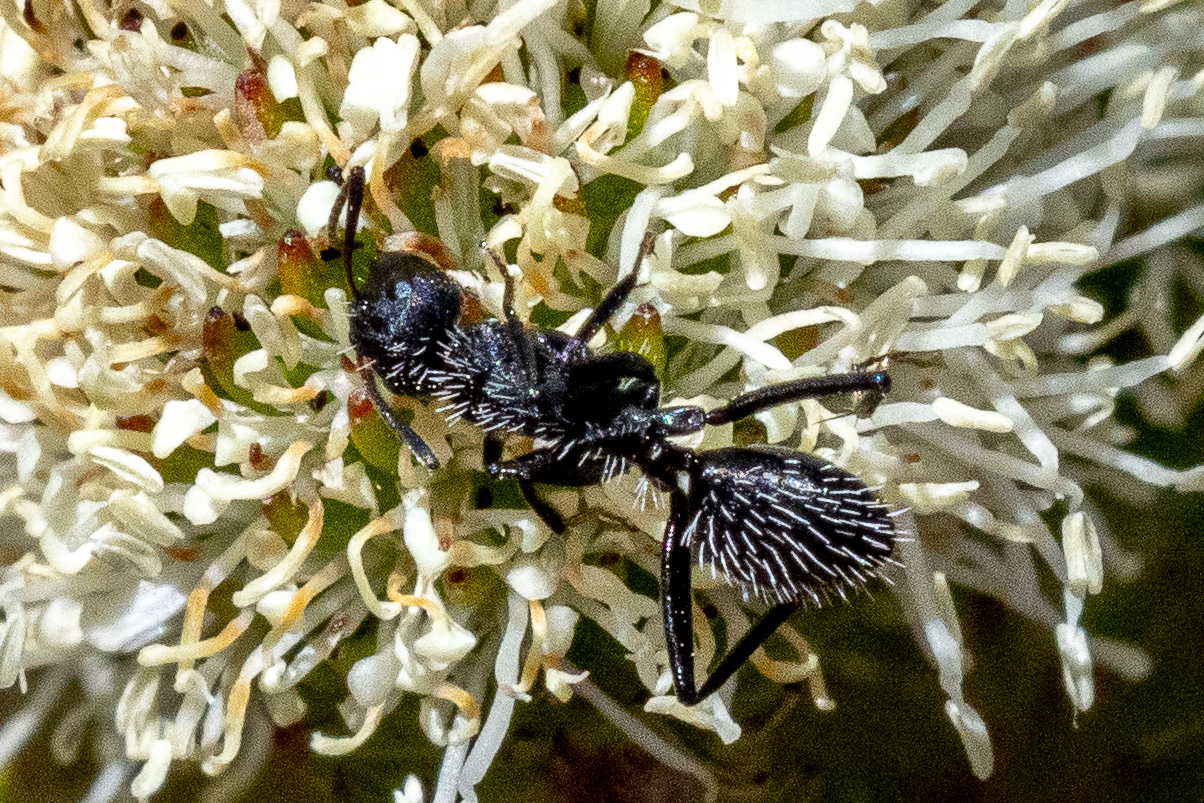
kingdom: Animalia
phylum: Arthropoda
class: Insecta
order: Hymenoptera
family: Formicidae
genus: Camponotus
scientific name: Camponotus niveosetosus
